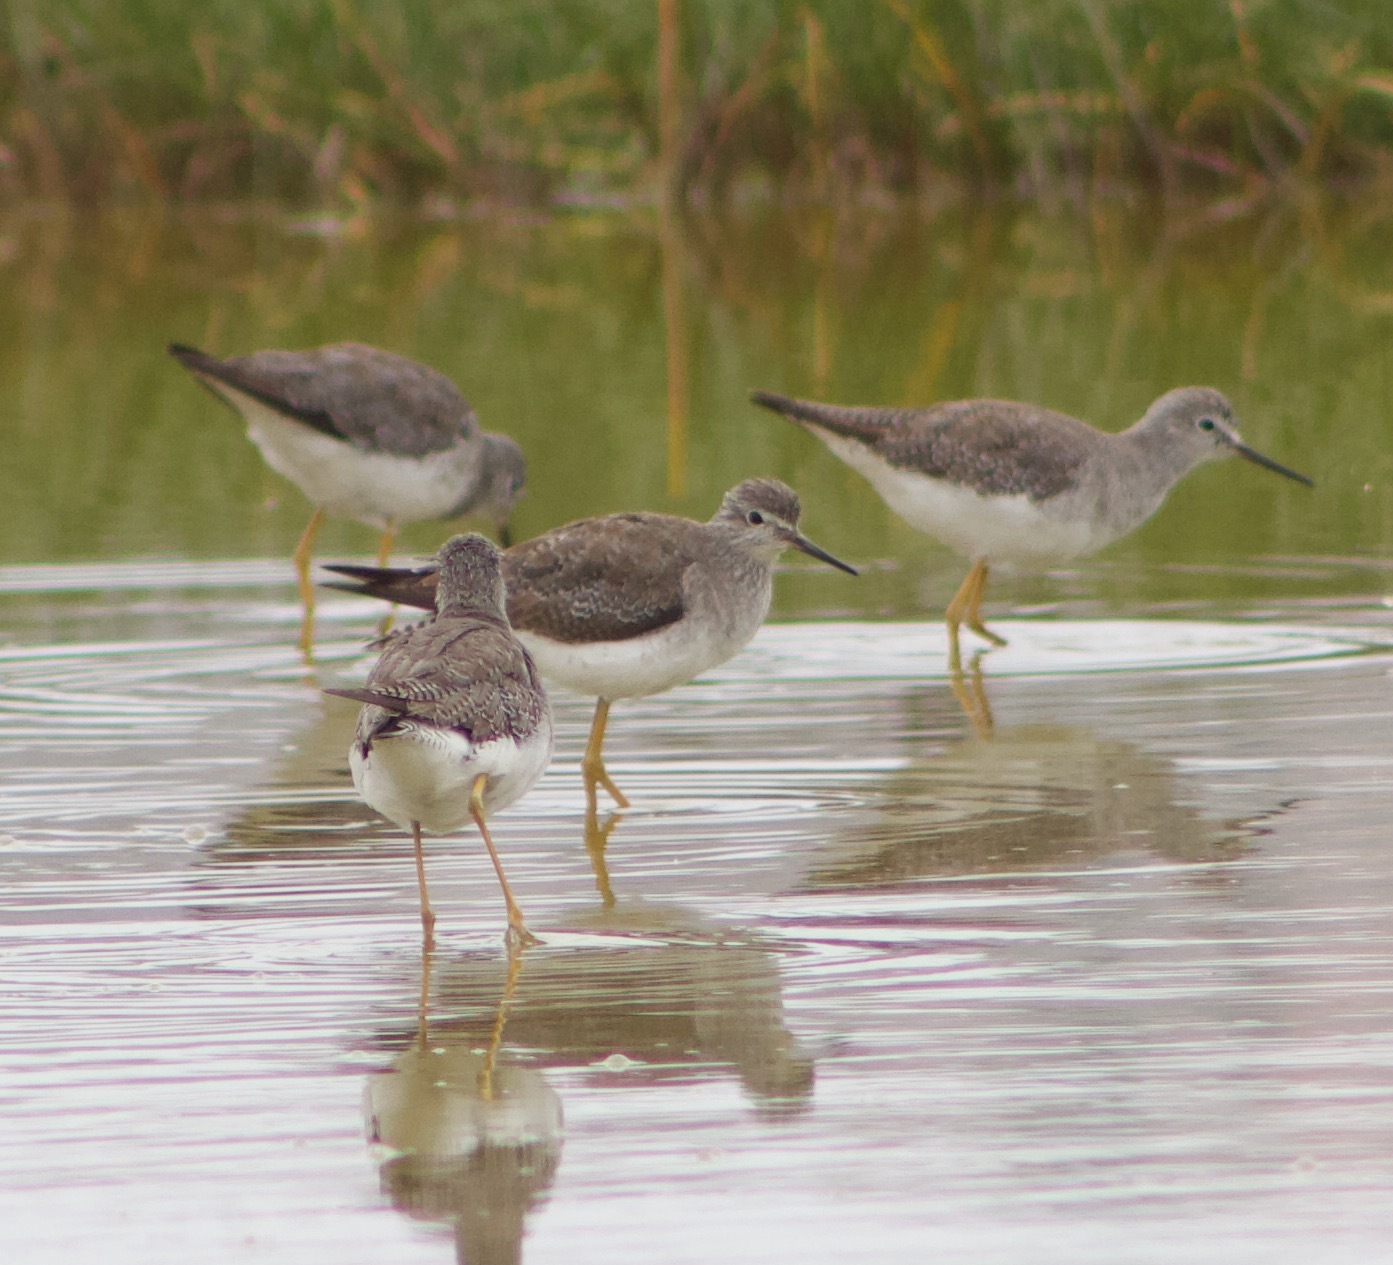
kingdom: Animalia
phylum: Chordata
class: Aves
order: Charadriiformes
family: Scolopacidae
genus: Tringa
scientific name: Tringa flavipes
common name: Lesser yellowlegs
